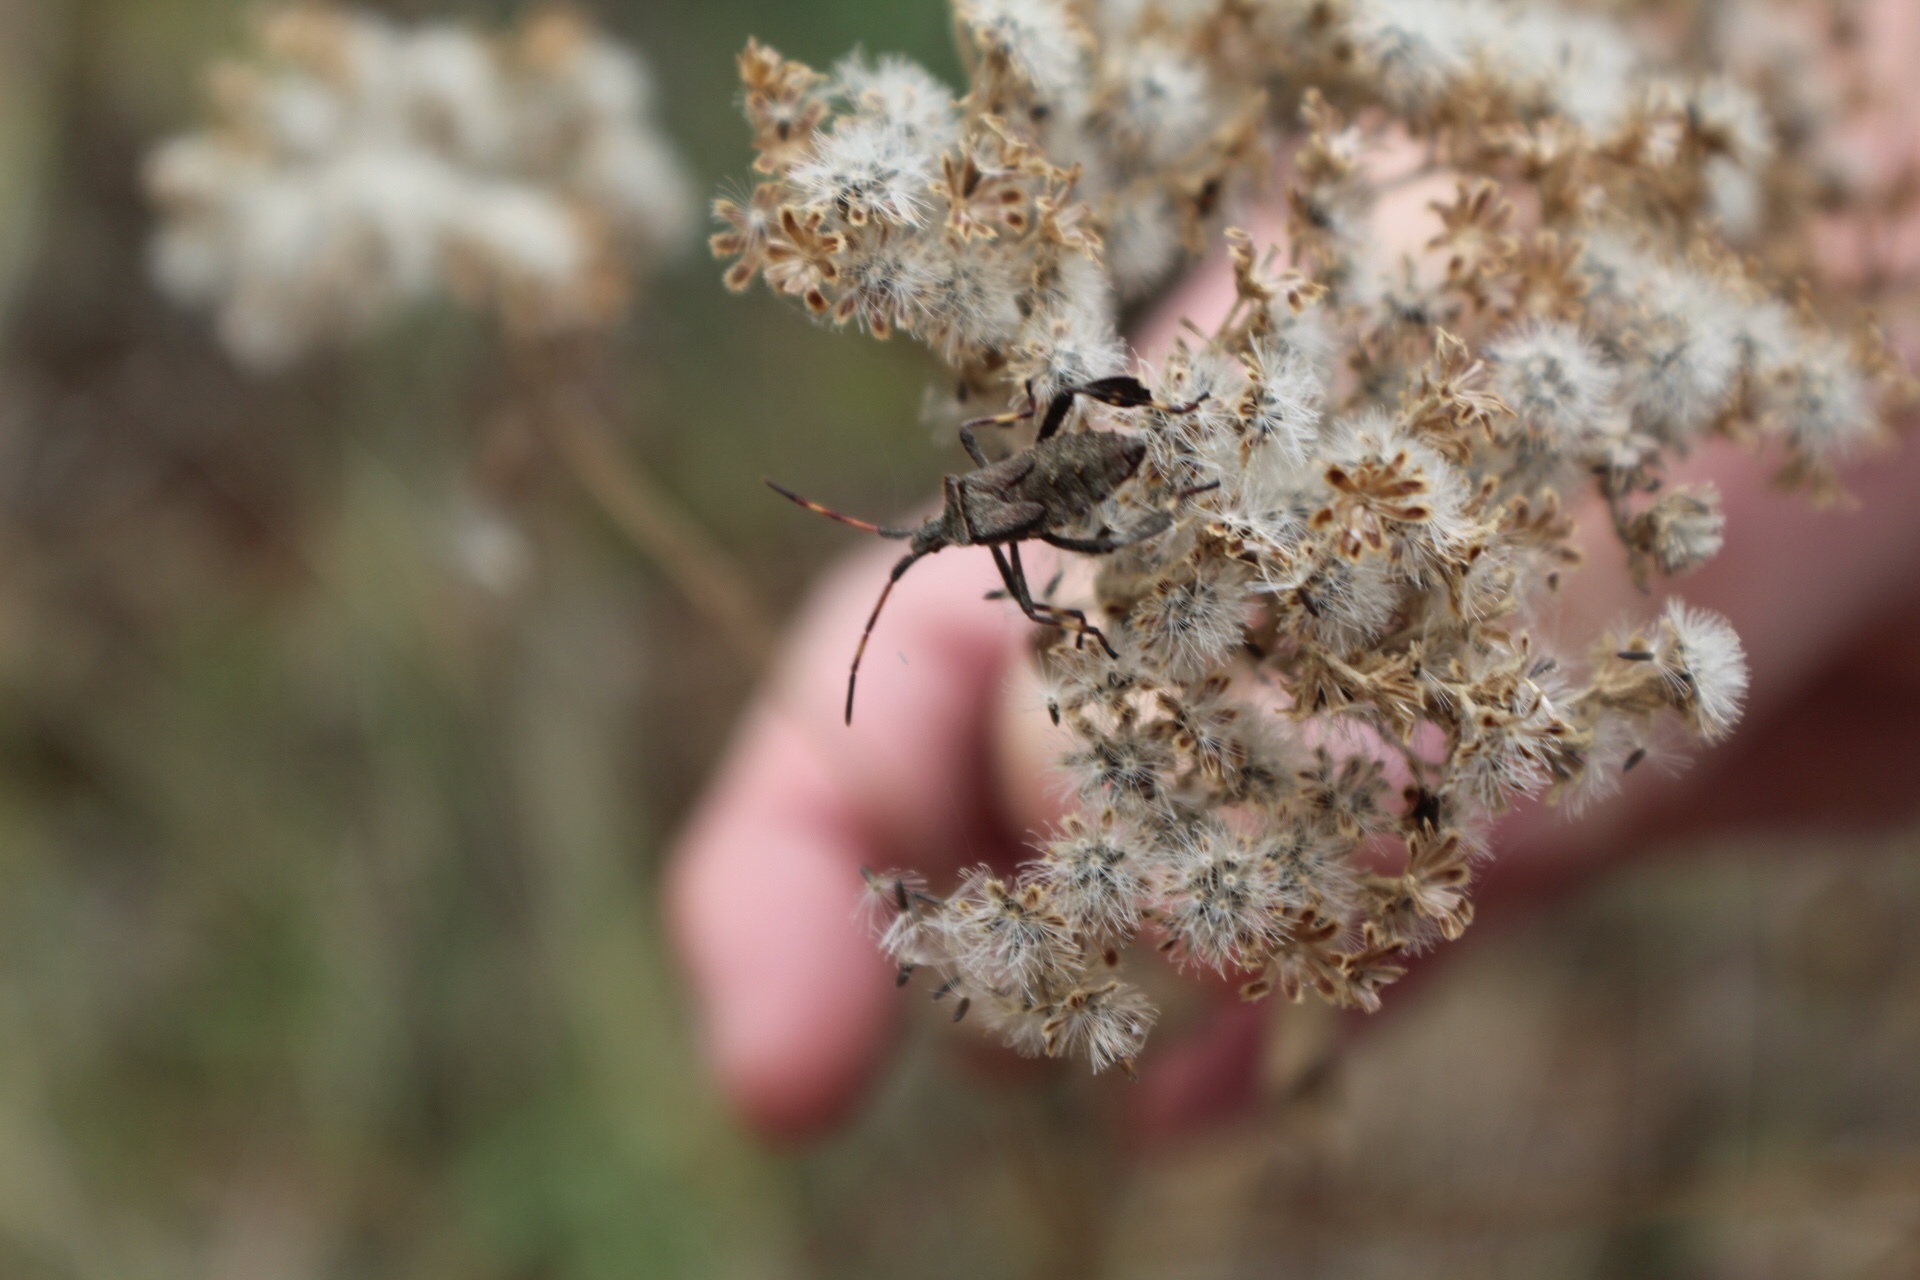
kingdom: Animalia
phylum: Arthropoda
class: Insecta
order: Hemiptera
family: Coreidae
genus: Leptoglossus
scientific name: Leptoglossus phyllopus
